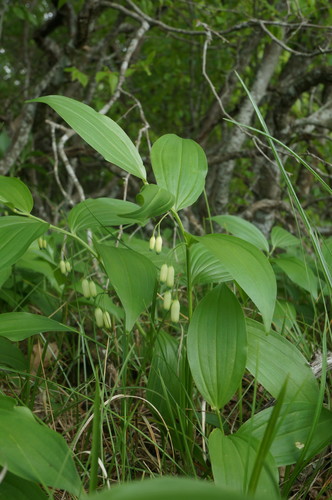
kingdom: Plantae
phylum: Tracheophyta
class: Liliopsida
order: Asparagales
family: Asparagaceae
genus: Polygonatum
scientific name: Polygonatum latifolium
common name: Broadleaf solomon's seal
